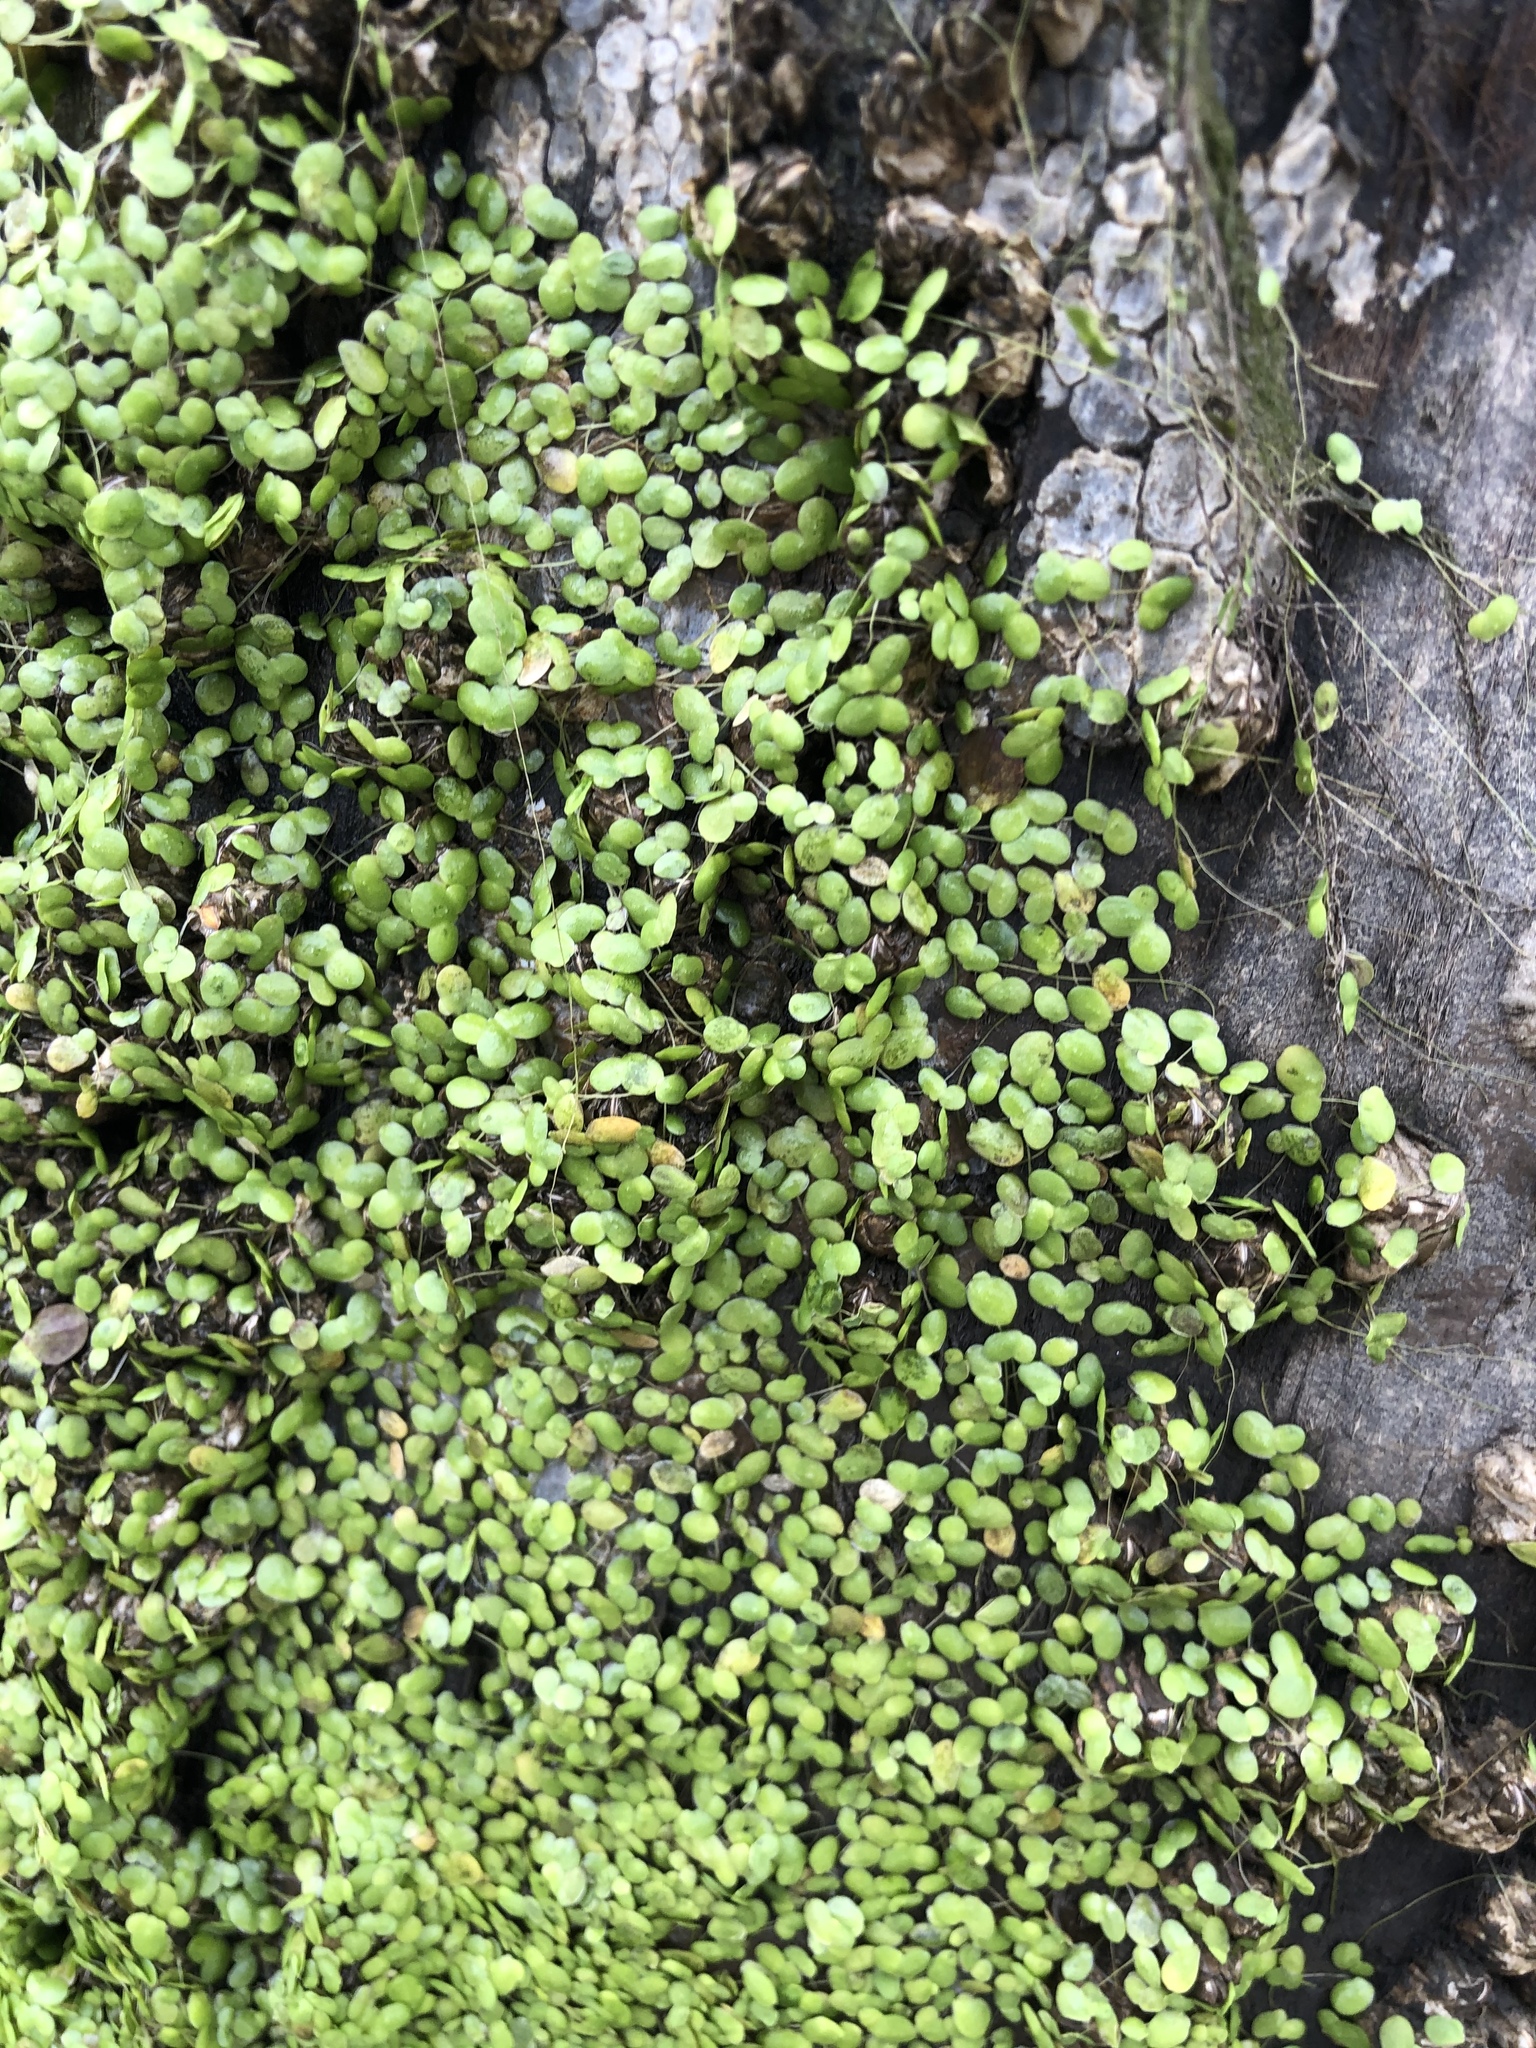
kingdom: Plantae
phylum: Tracheophyta
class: Liliopsida
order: Alismatales
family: Araceae
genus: Lemna
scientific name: Lemna minor
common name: Common duckweed
